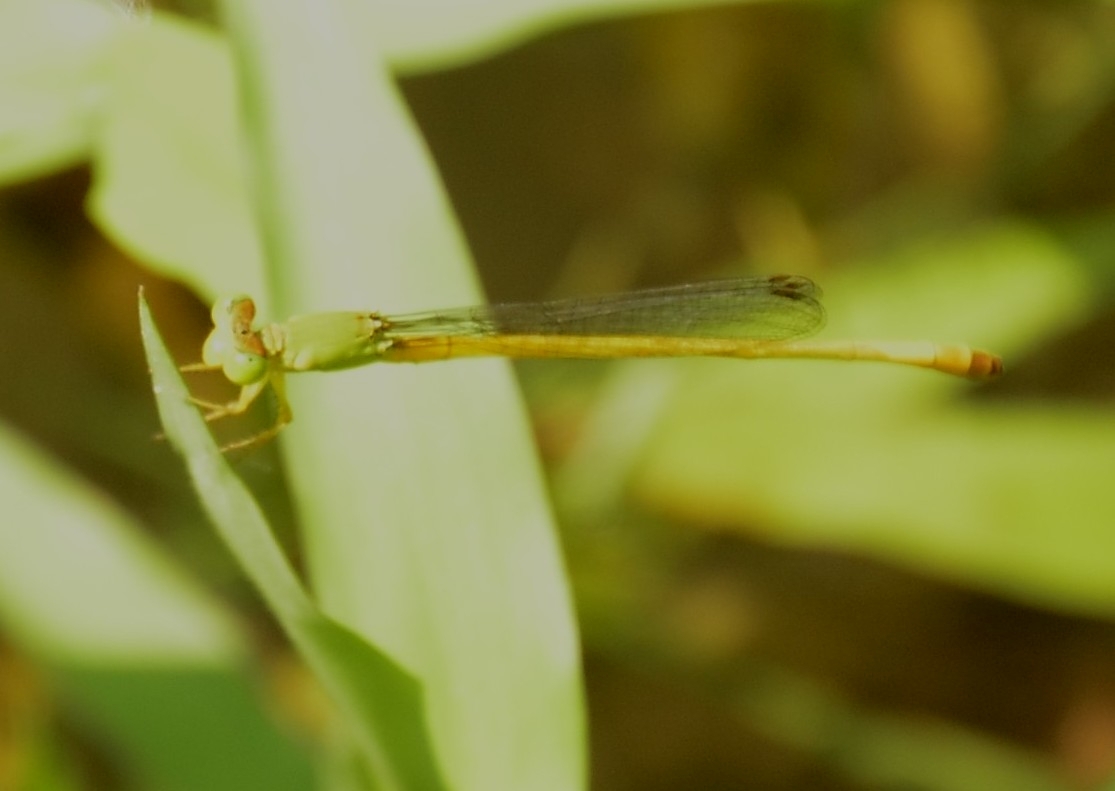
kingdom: Animalia
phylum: Arthropoda
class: Insecta
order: Odonata
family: Coenagrionidae
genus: Ceriagrion
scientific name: Ceriagrion coromandelianum
